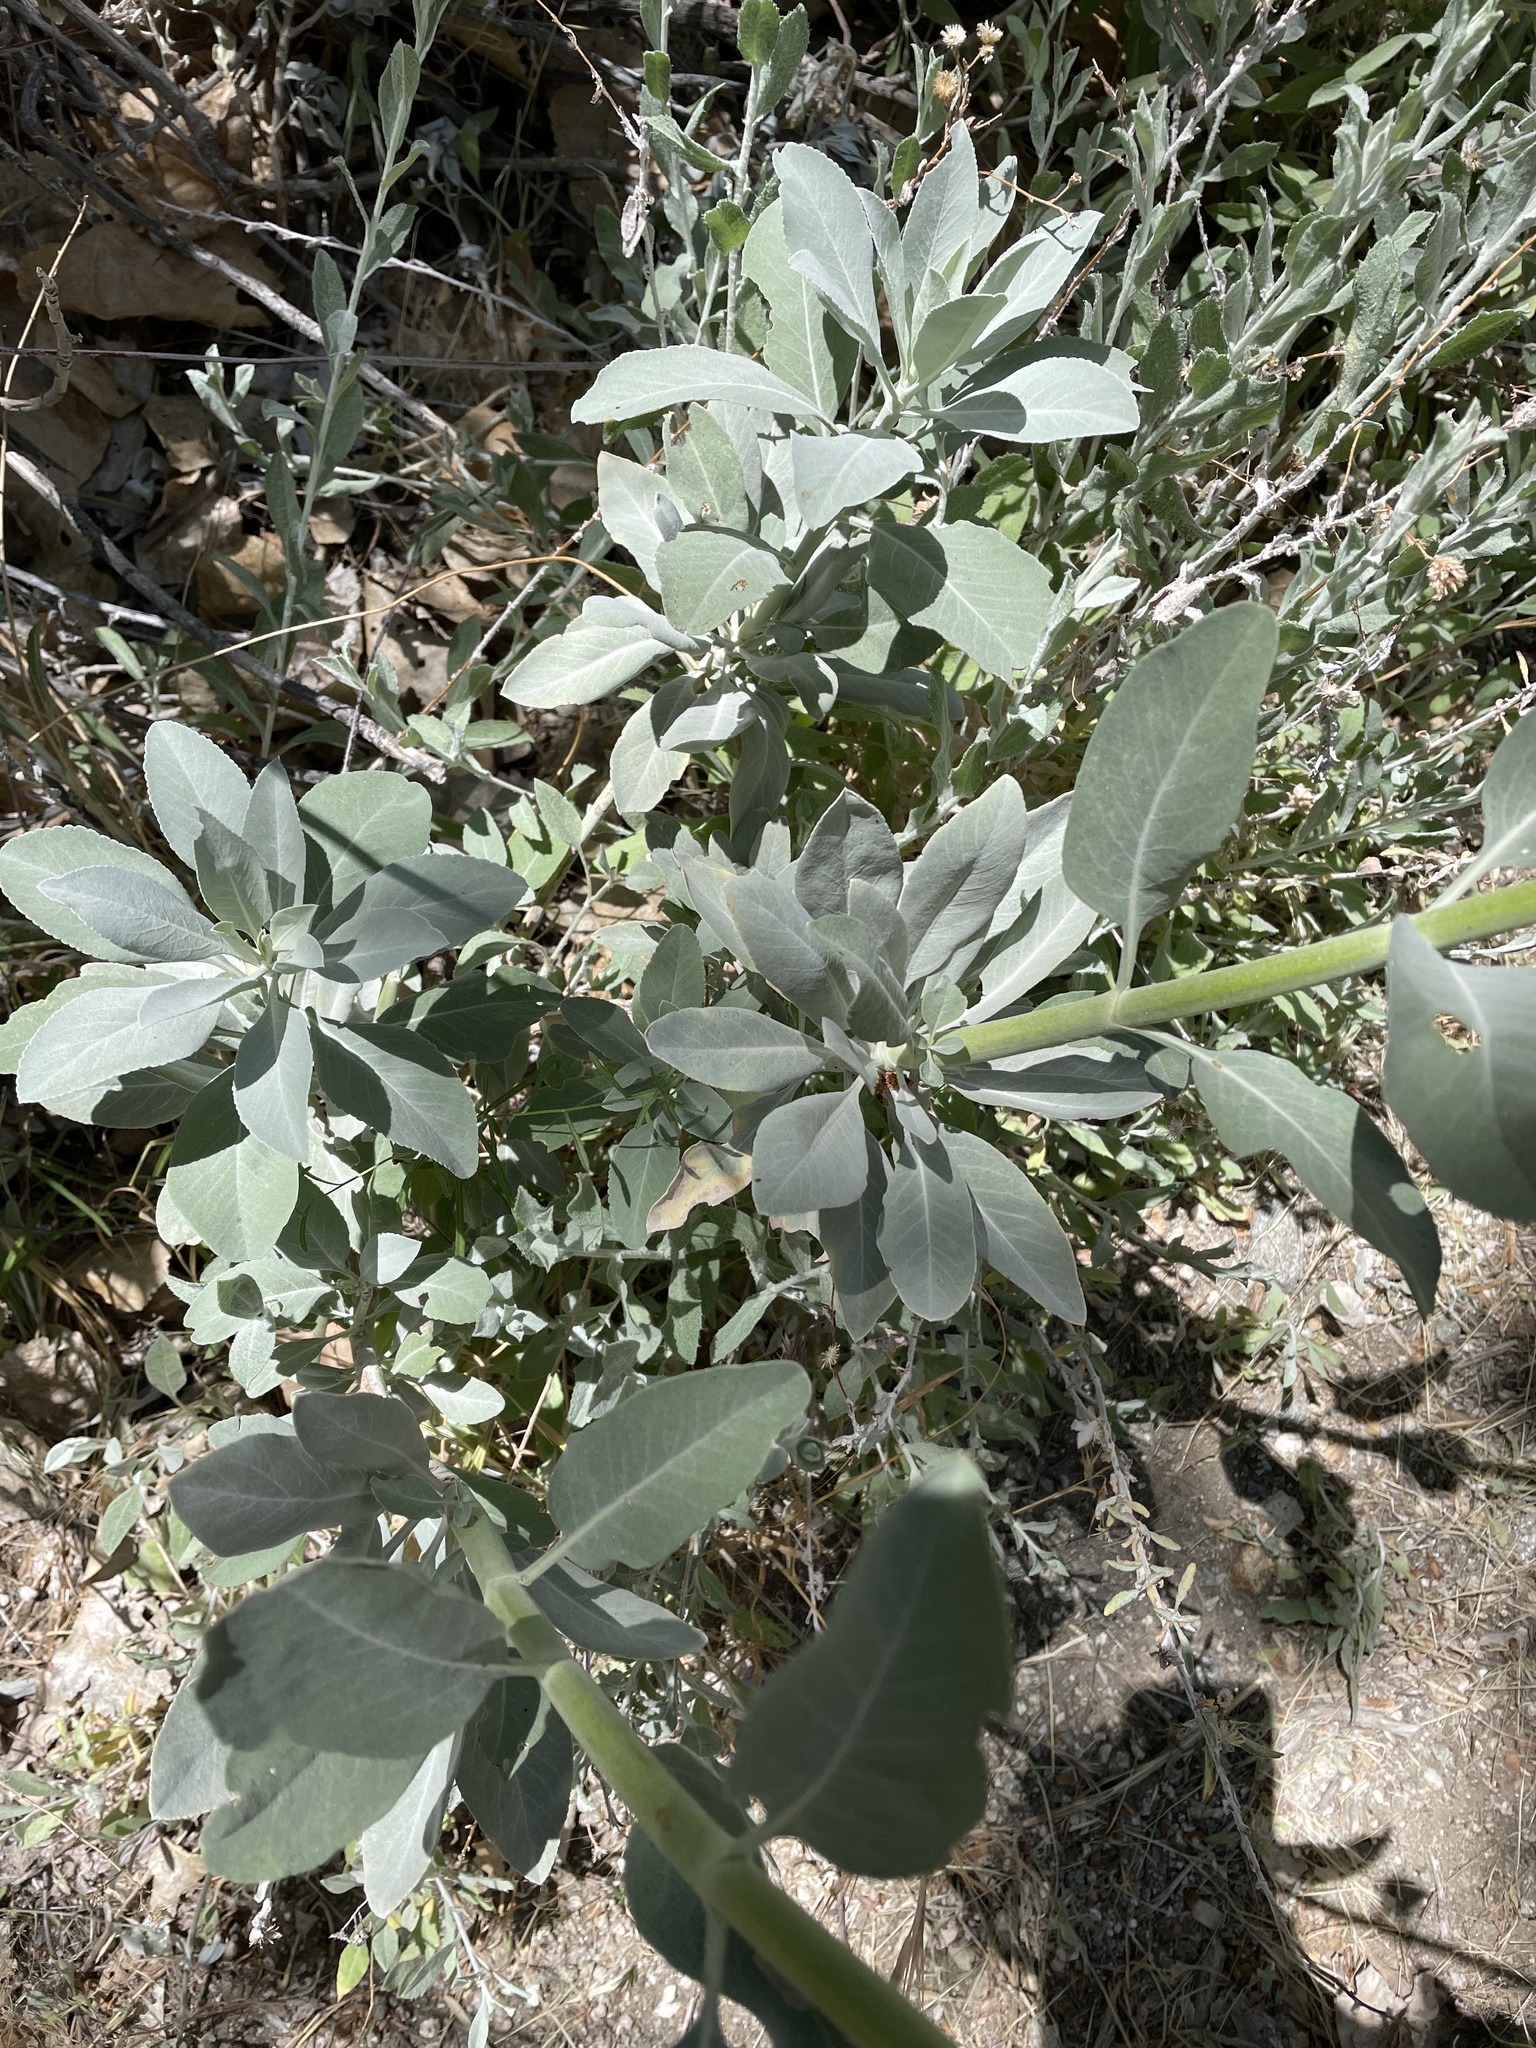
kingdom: Plantae
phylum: Tracheophyta
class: Magnoliopsida
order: Lamiales
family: Lamiaceae
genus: Salvia
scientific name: Salvia apiana
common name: White sage
